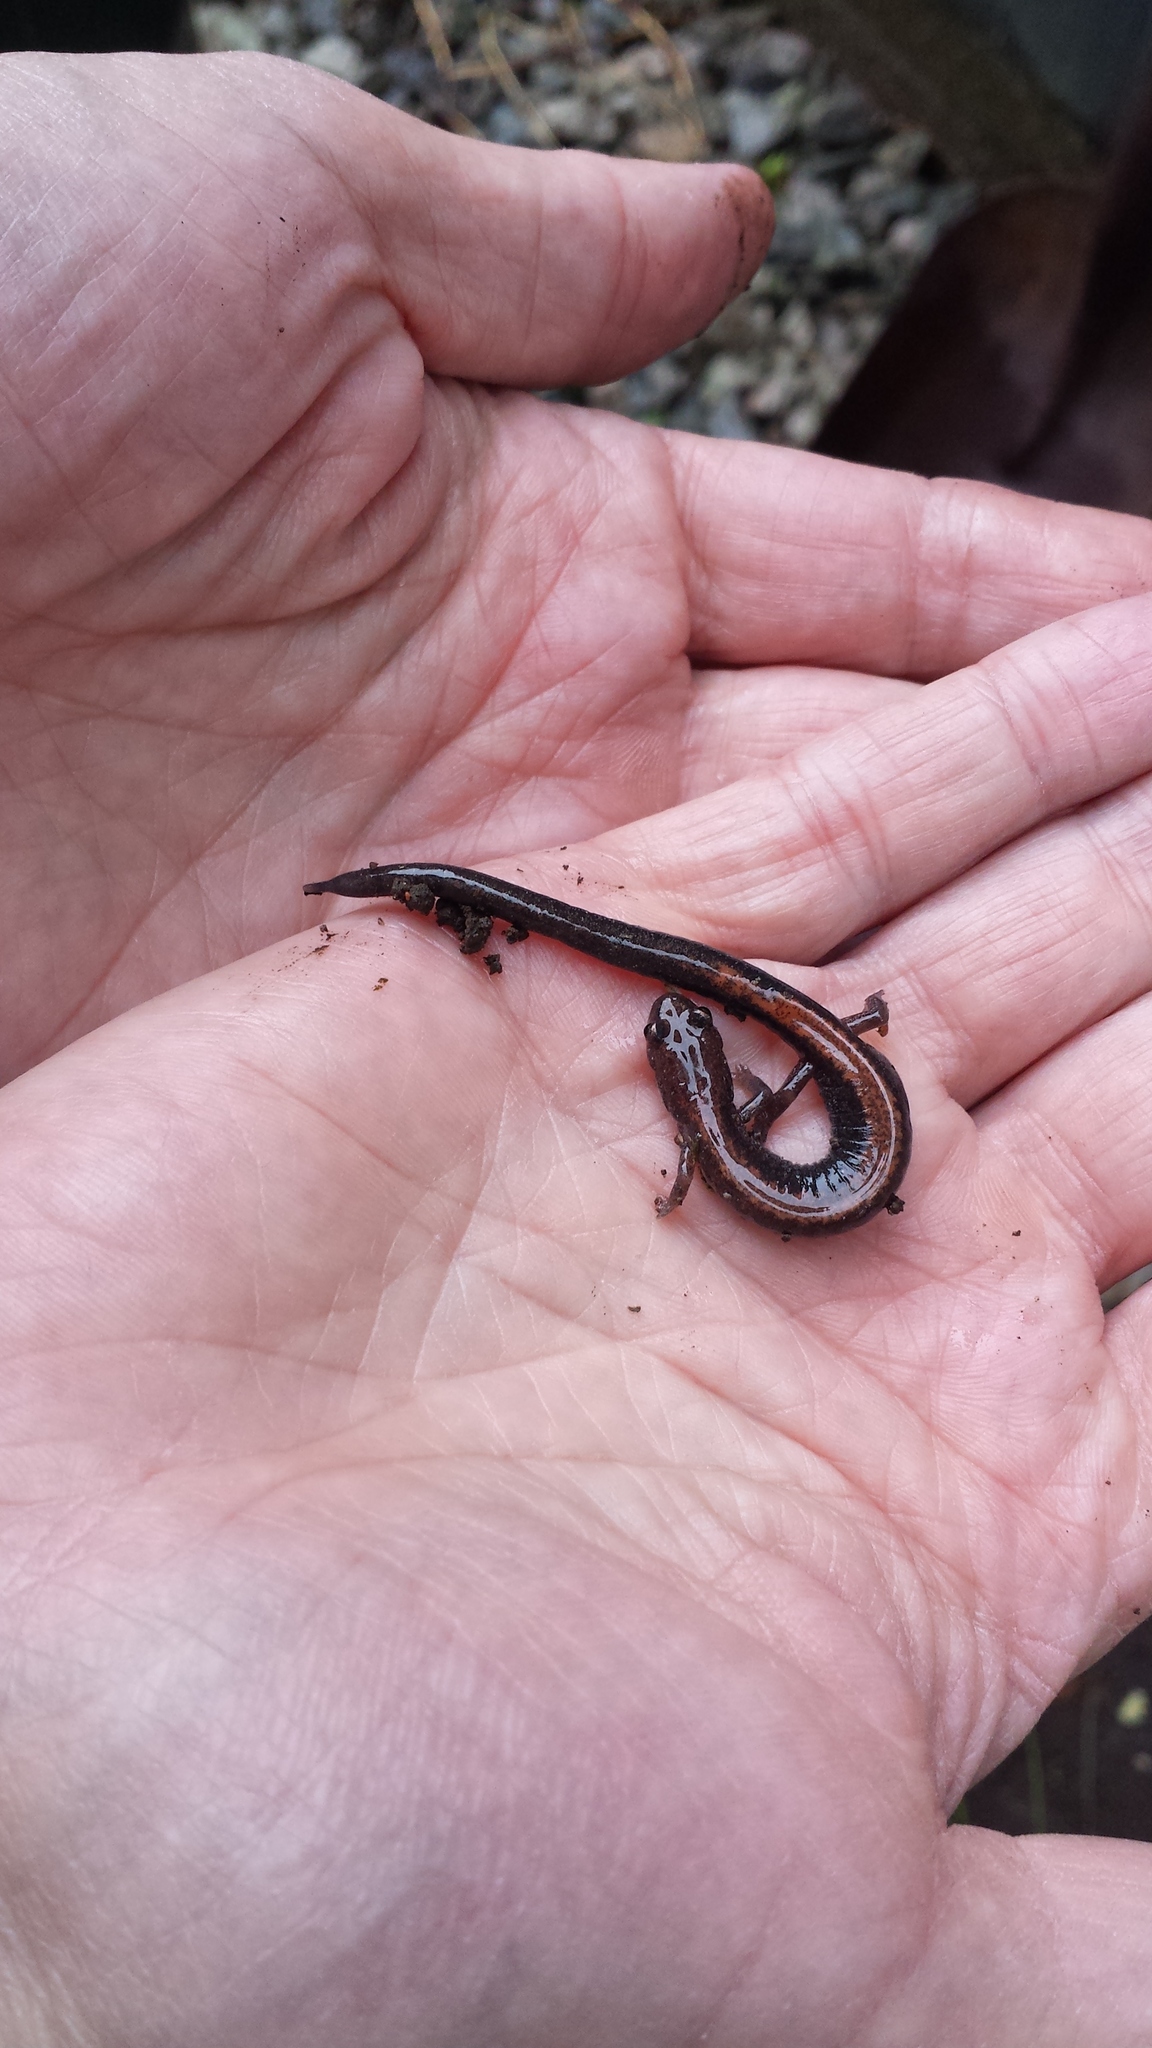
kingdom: Animalia
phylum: Chordata
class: Amphibia
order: Caudata
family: Plethodontidae
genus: Plethodon
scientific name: Plethodon cinereus
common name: Redback salamander
